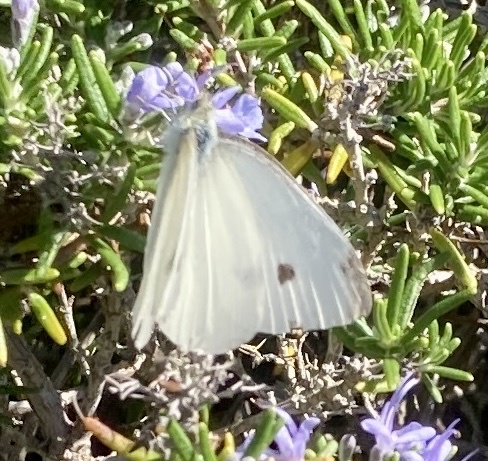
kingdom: Animalia
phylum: Arthropoda
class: Insecta
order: Lepidoptera
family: Pieridae
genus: Pieris
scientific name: Pieris rapae
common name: Small white
